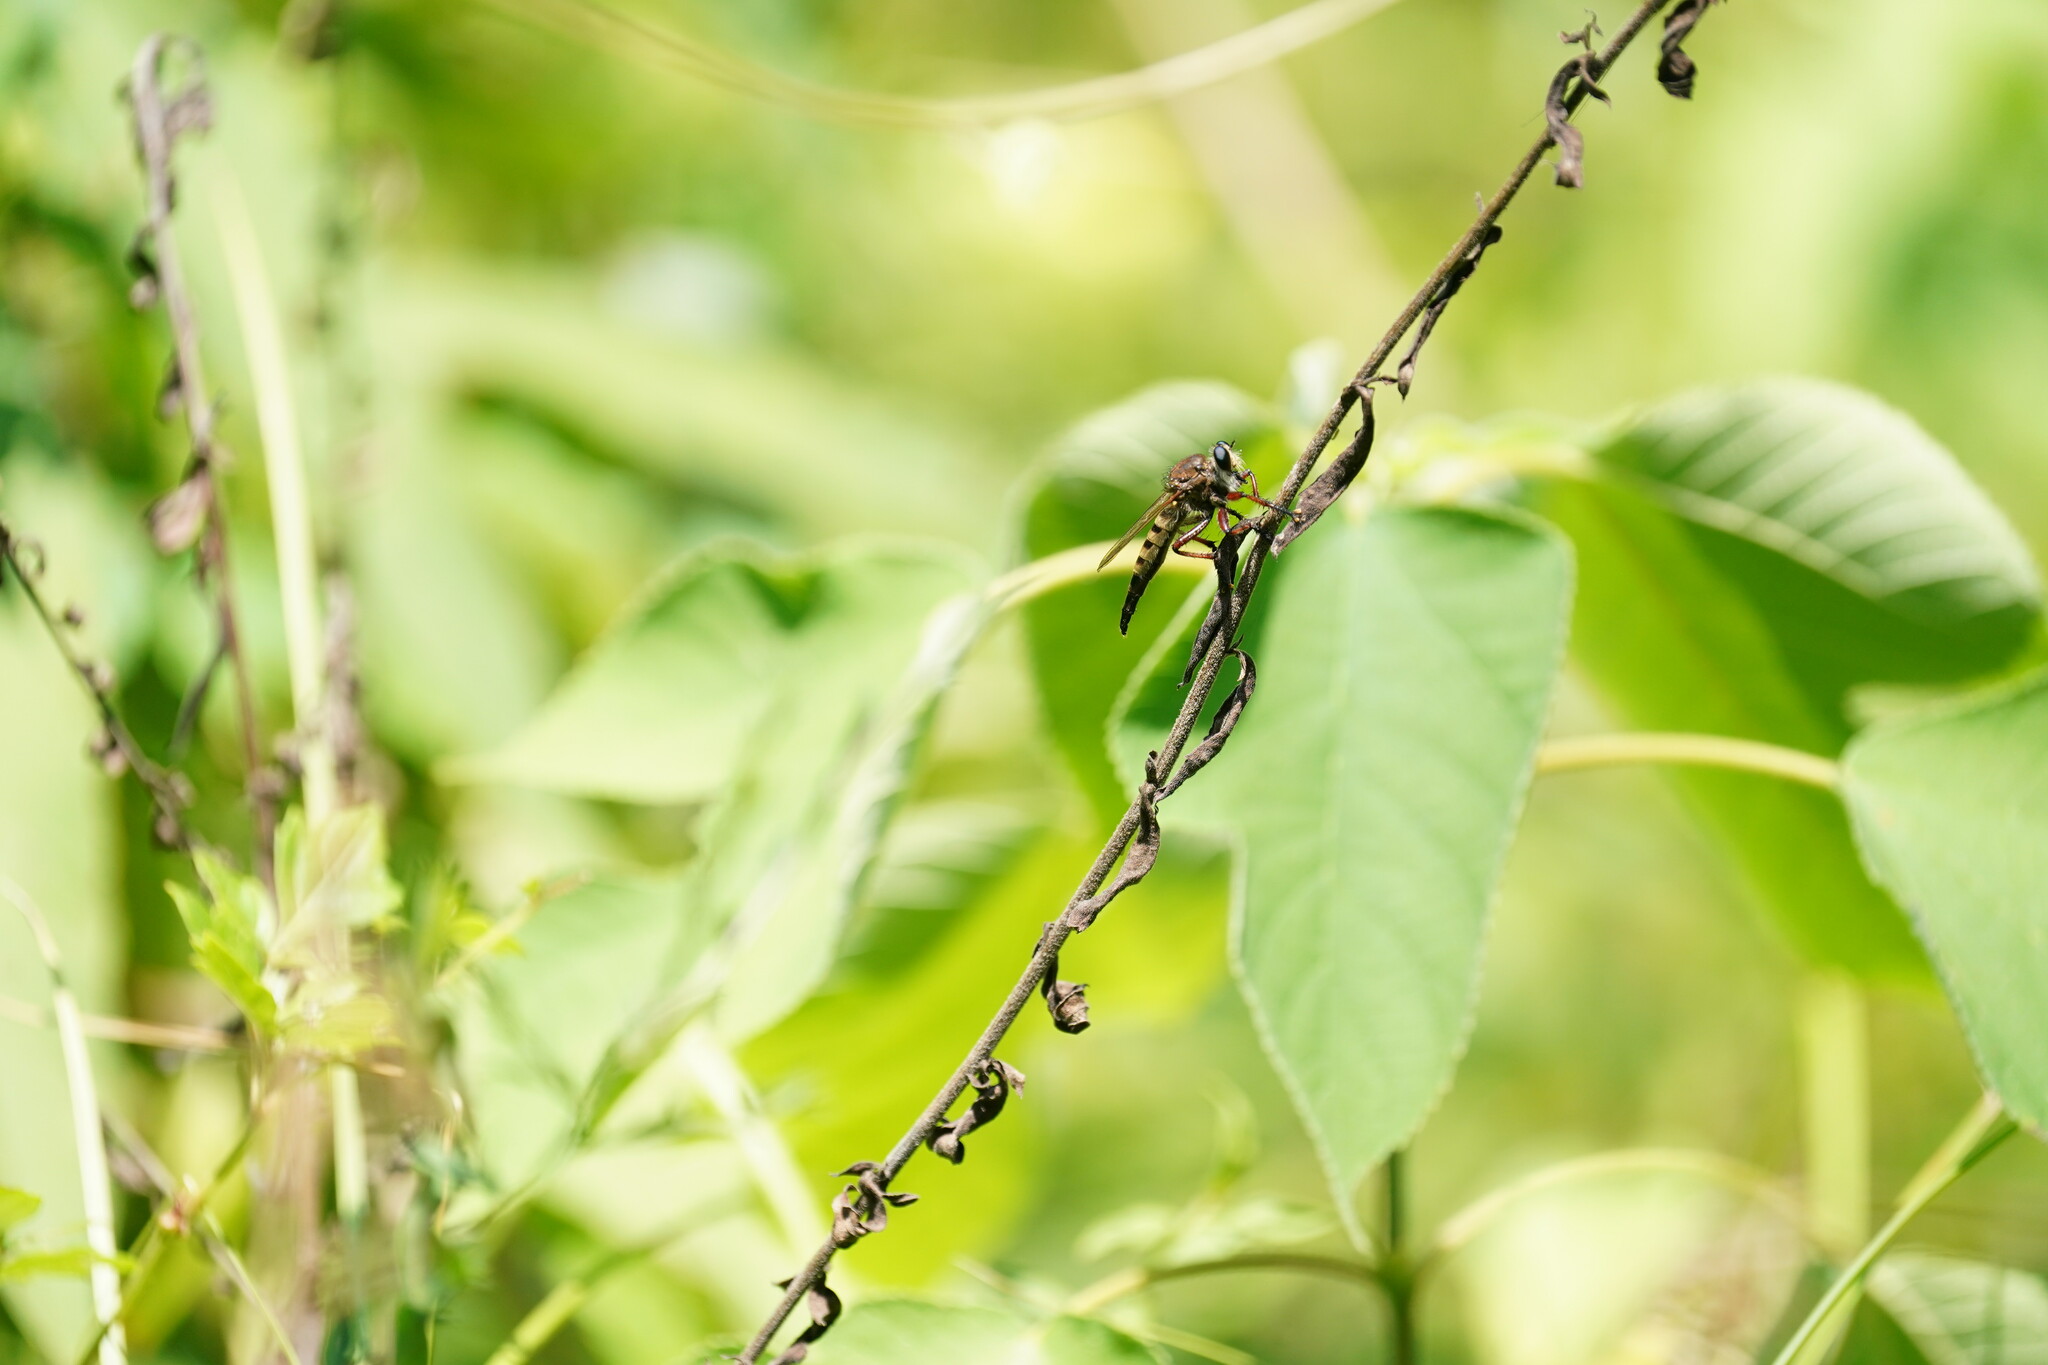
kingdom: Animalia
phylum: Arthropoda
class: Insecta
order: Diptera
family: Asilidae
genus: Promachus
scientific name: Promachus hinei
